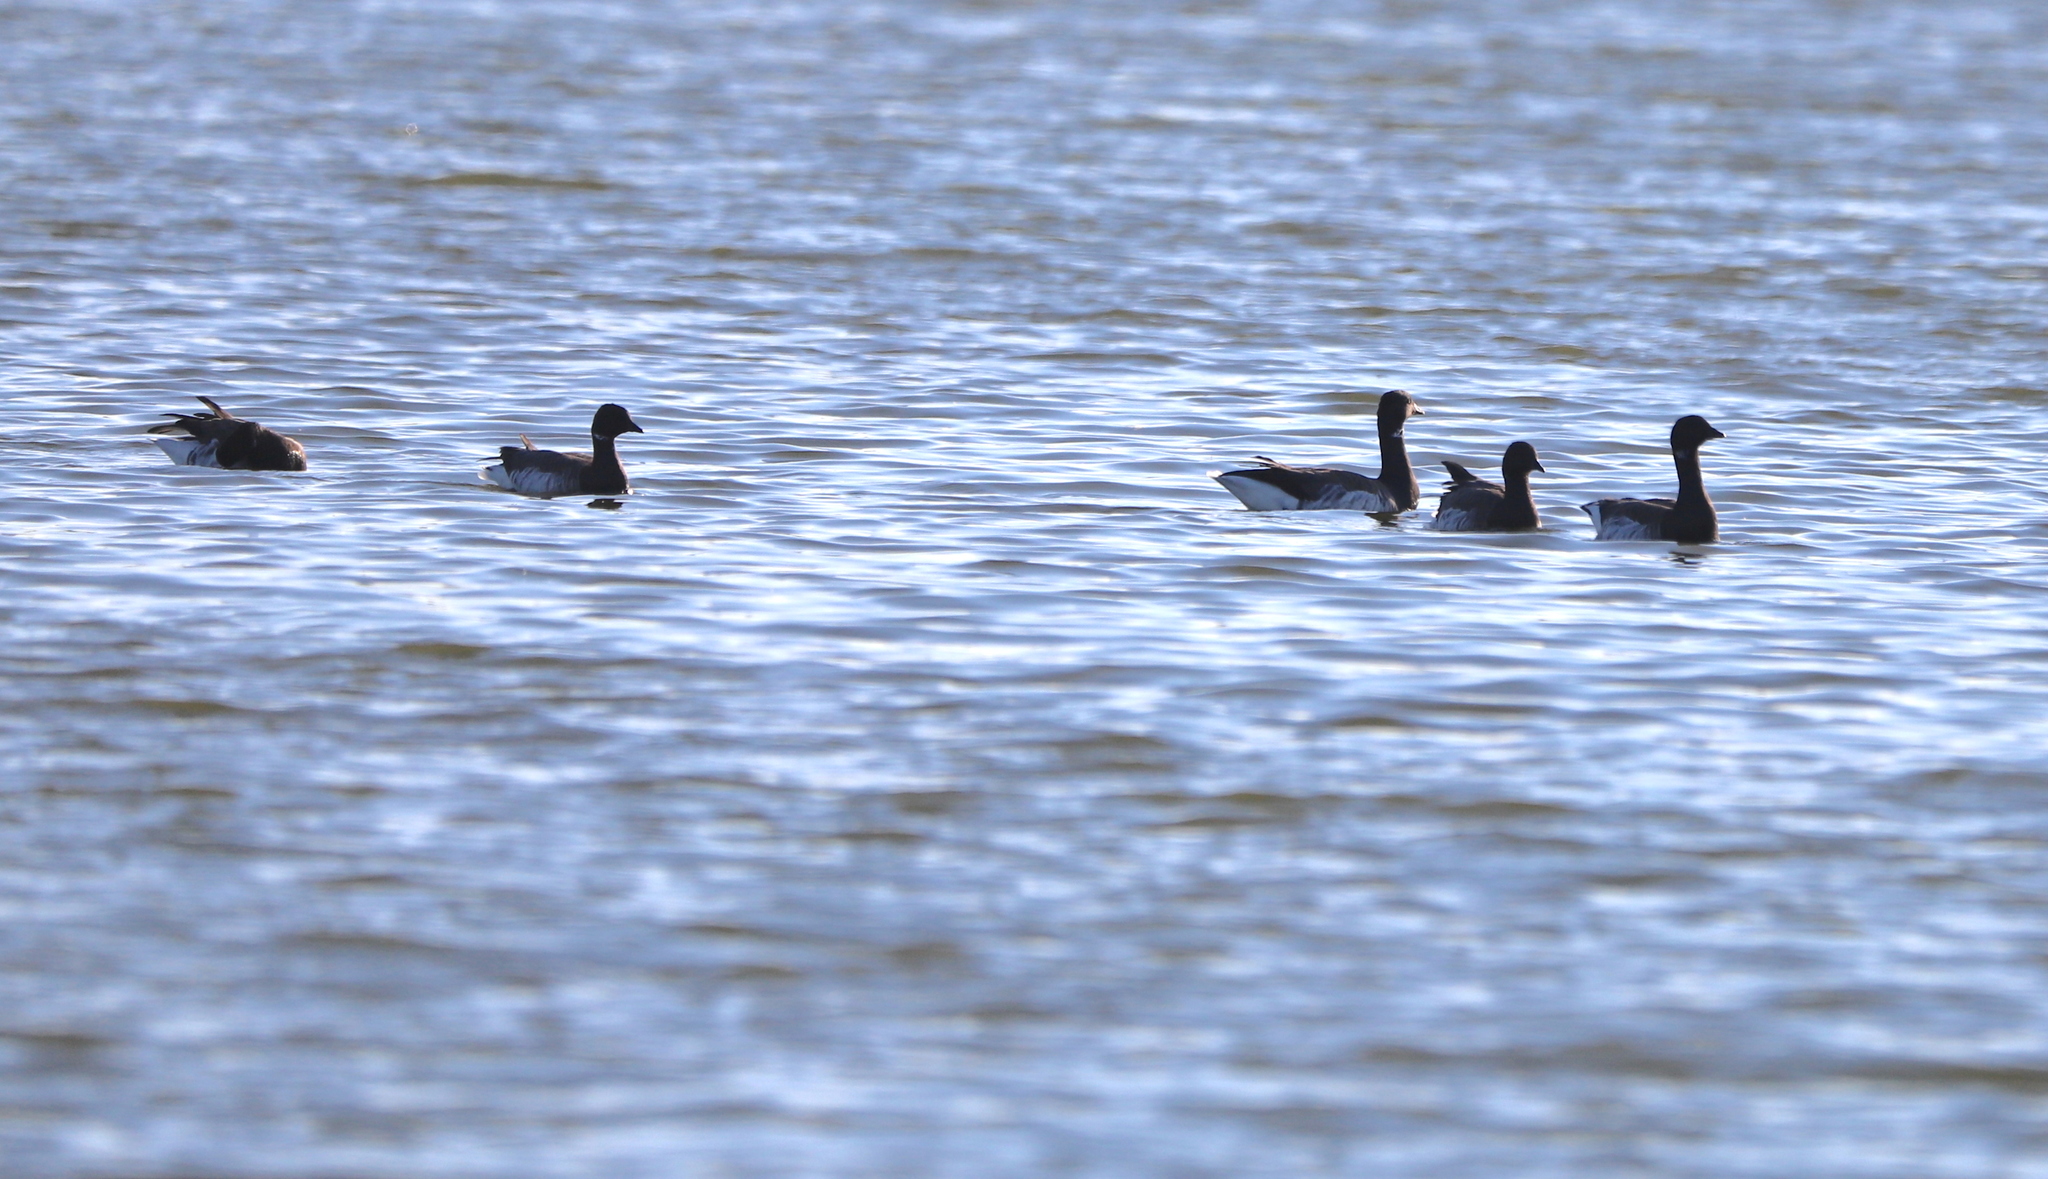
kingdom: Animalia
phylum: Chordata
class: Aves
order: Anseriformes
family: Anatidae
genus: Branta
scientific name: Branta bernicla
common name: Brant goose
